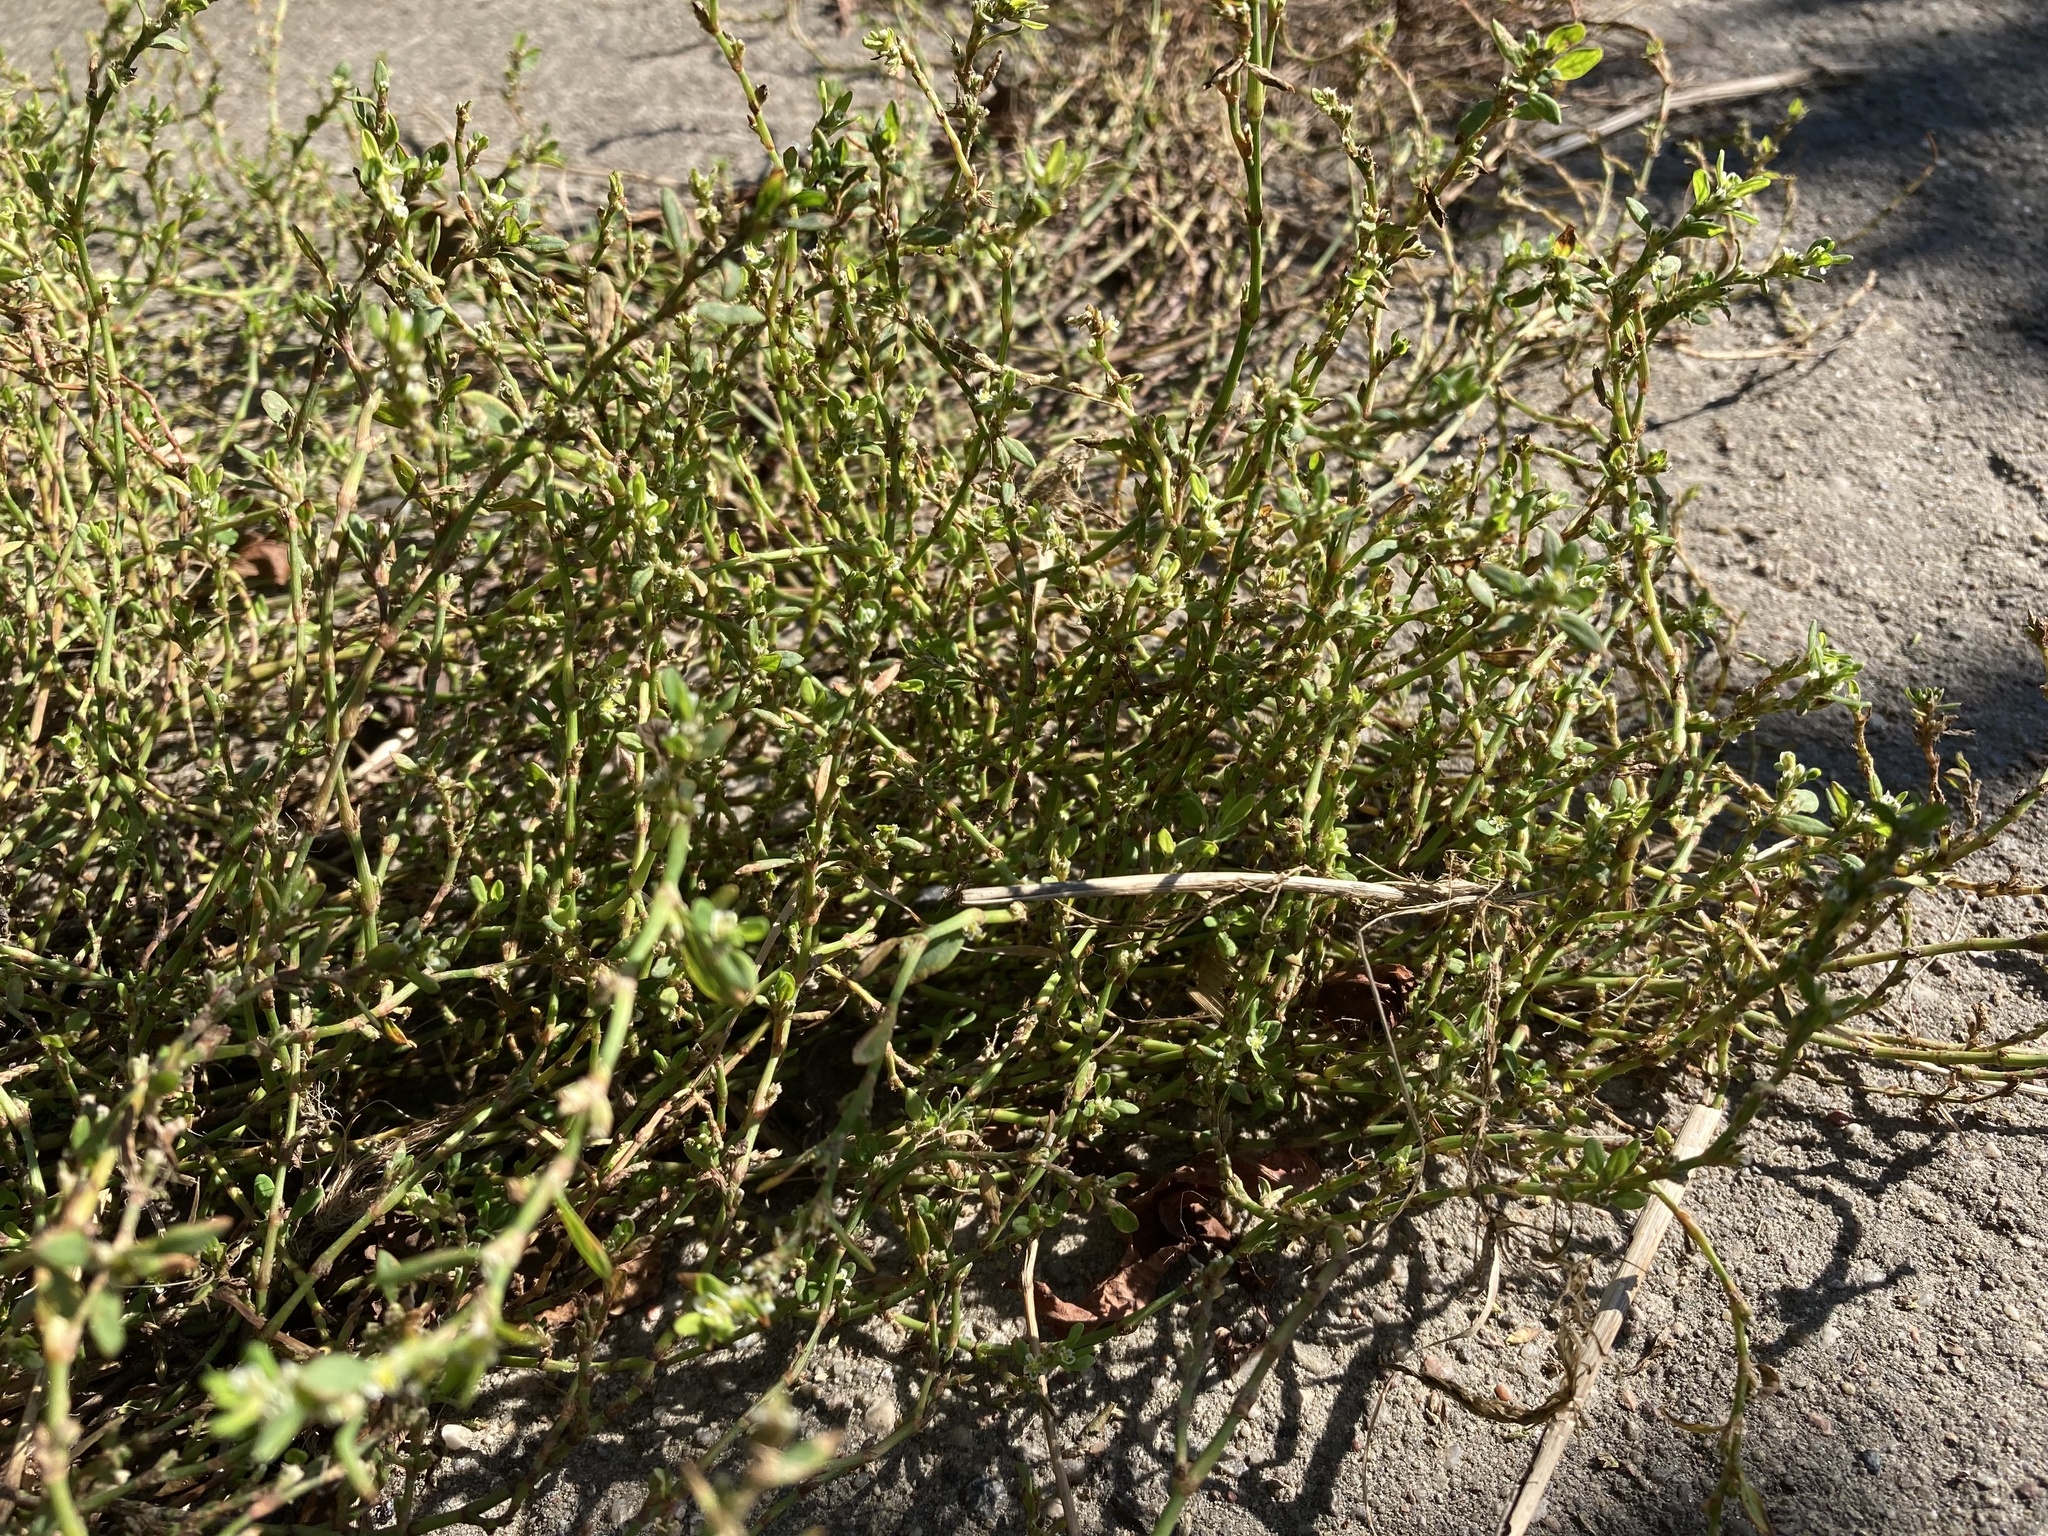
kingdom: Plantae
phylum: Tracheophyta
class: Magnoliopsida
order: Caryophyllales
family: Polygonaceae
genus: Polygonum
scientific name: Polygonum aviculare
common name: Prostrate knotweed
